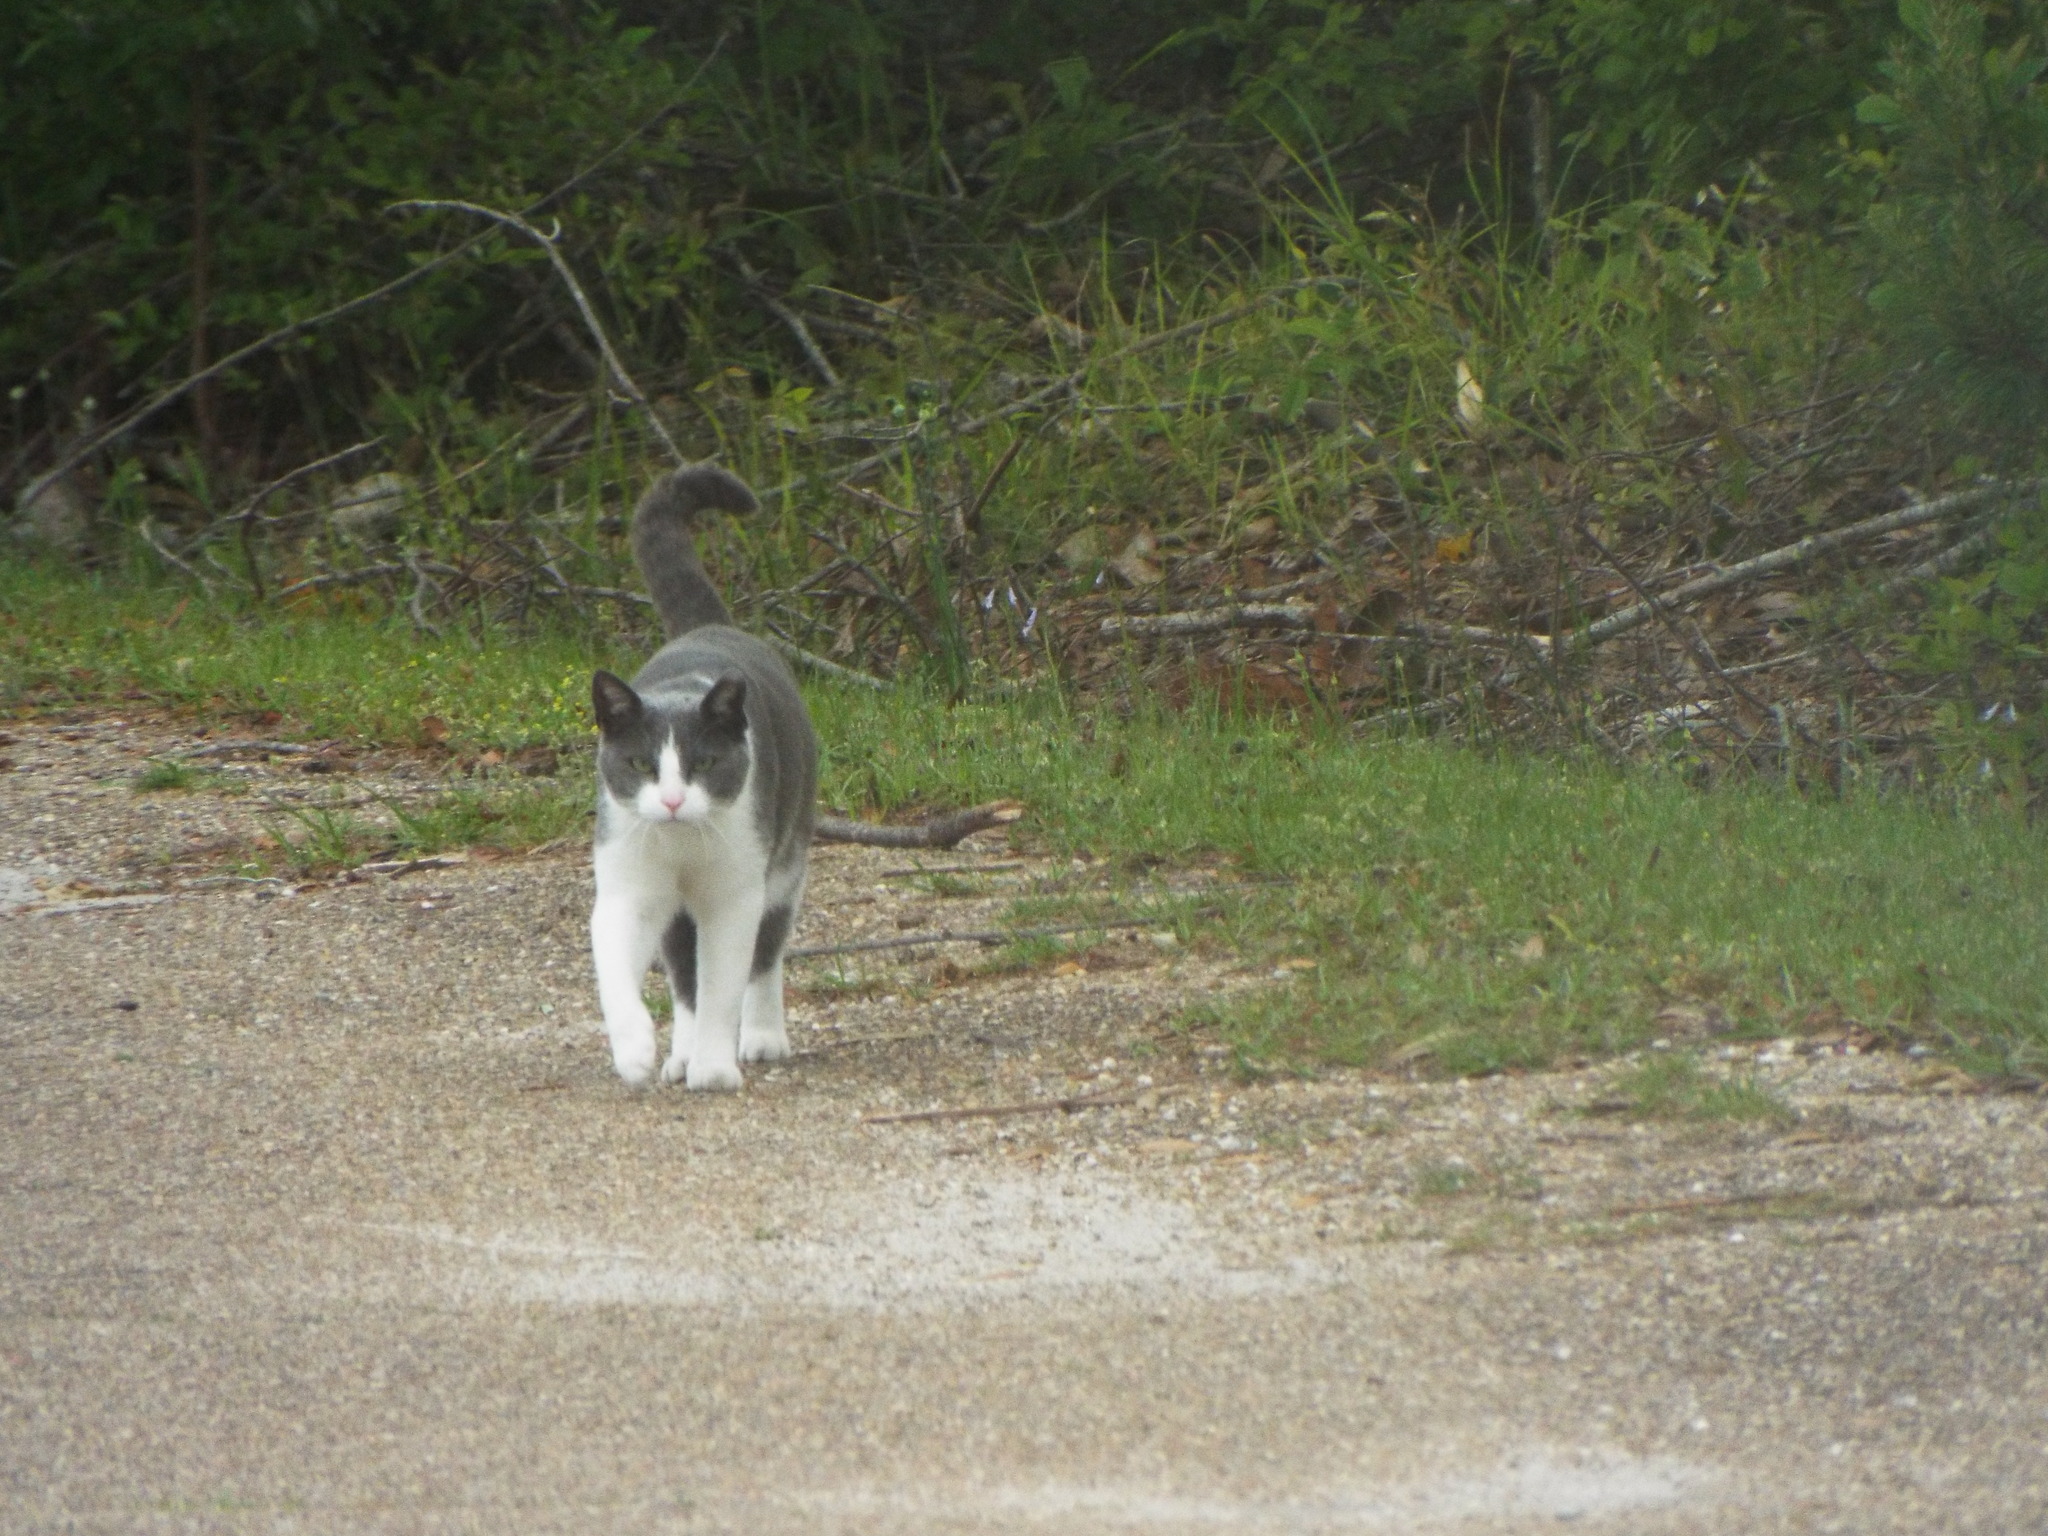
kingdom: Animalia
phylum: Chordata
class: Mammalia
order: Carnivora
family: Felidae
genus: Felis
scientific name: Felis catus
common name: Domestic cat
